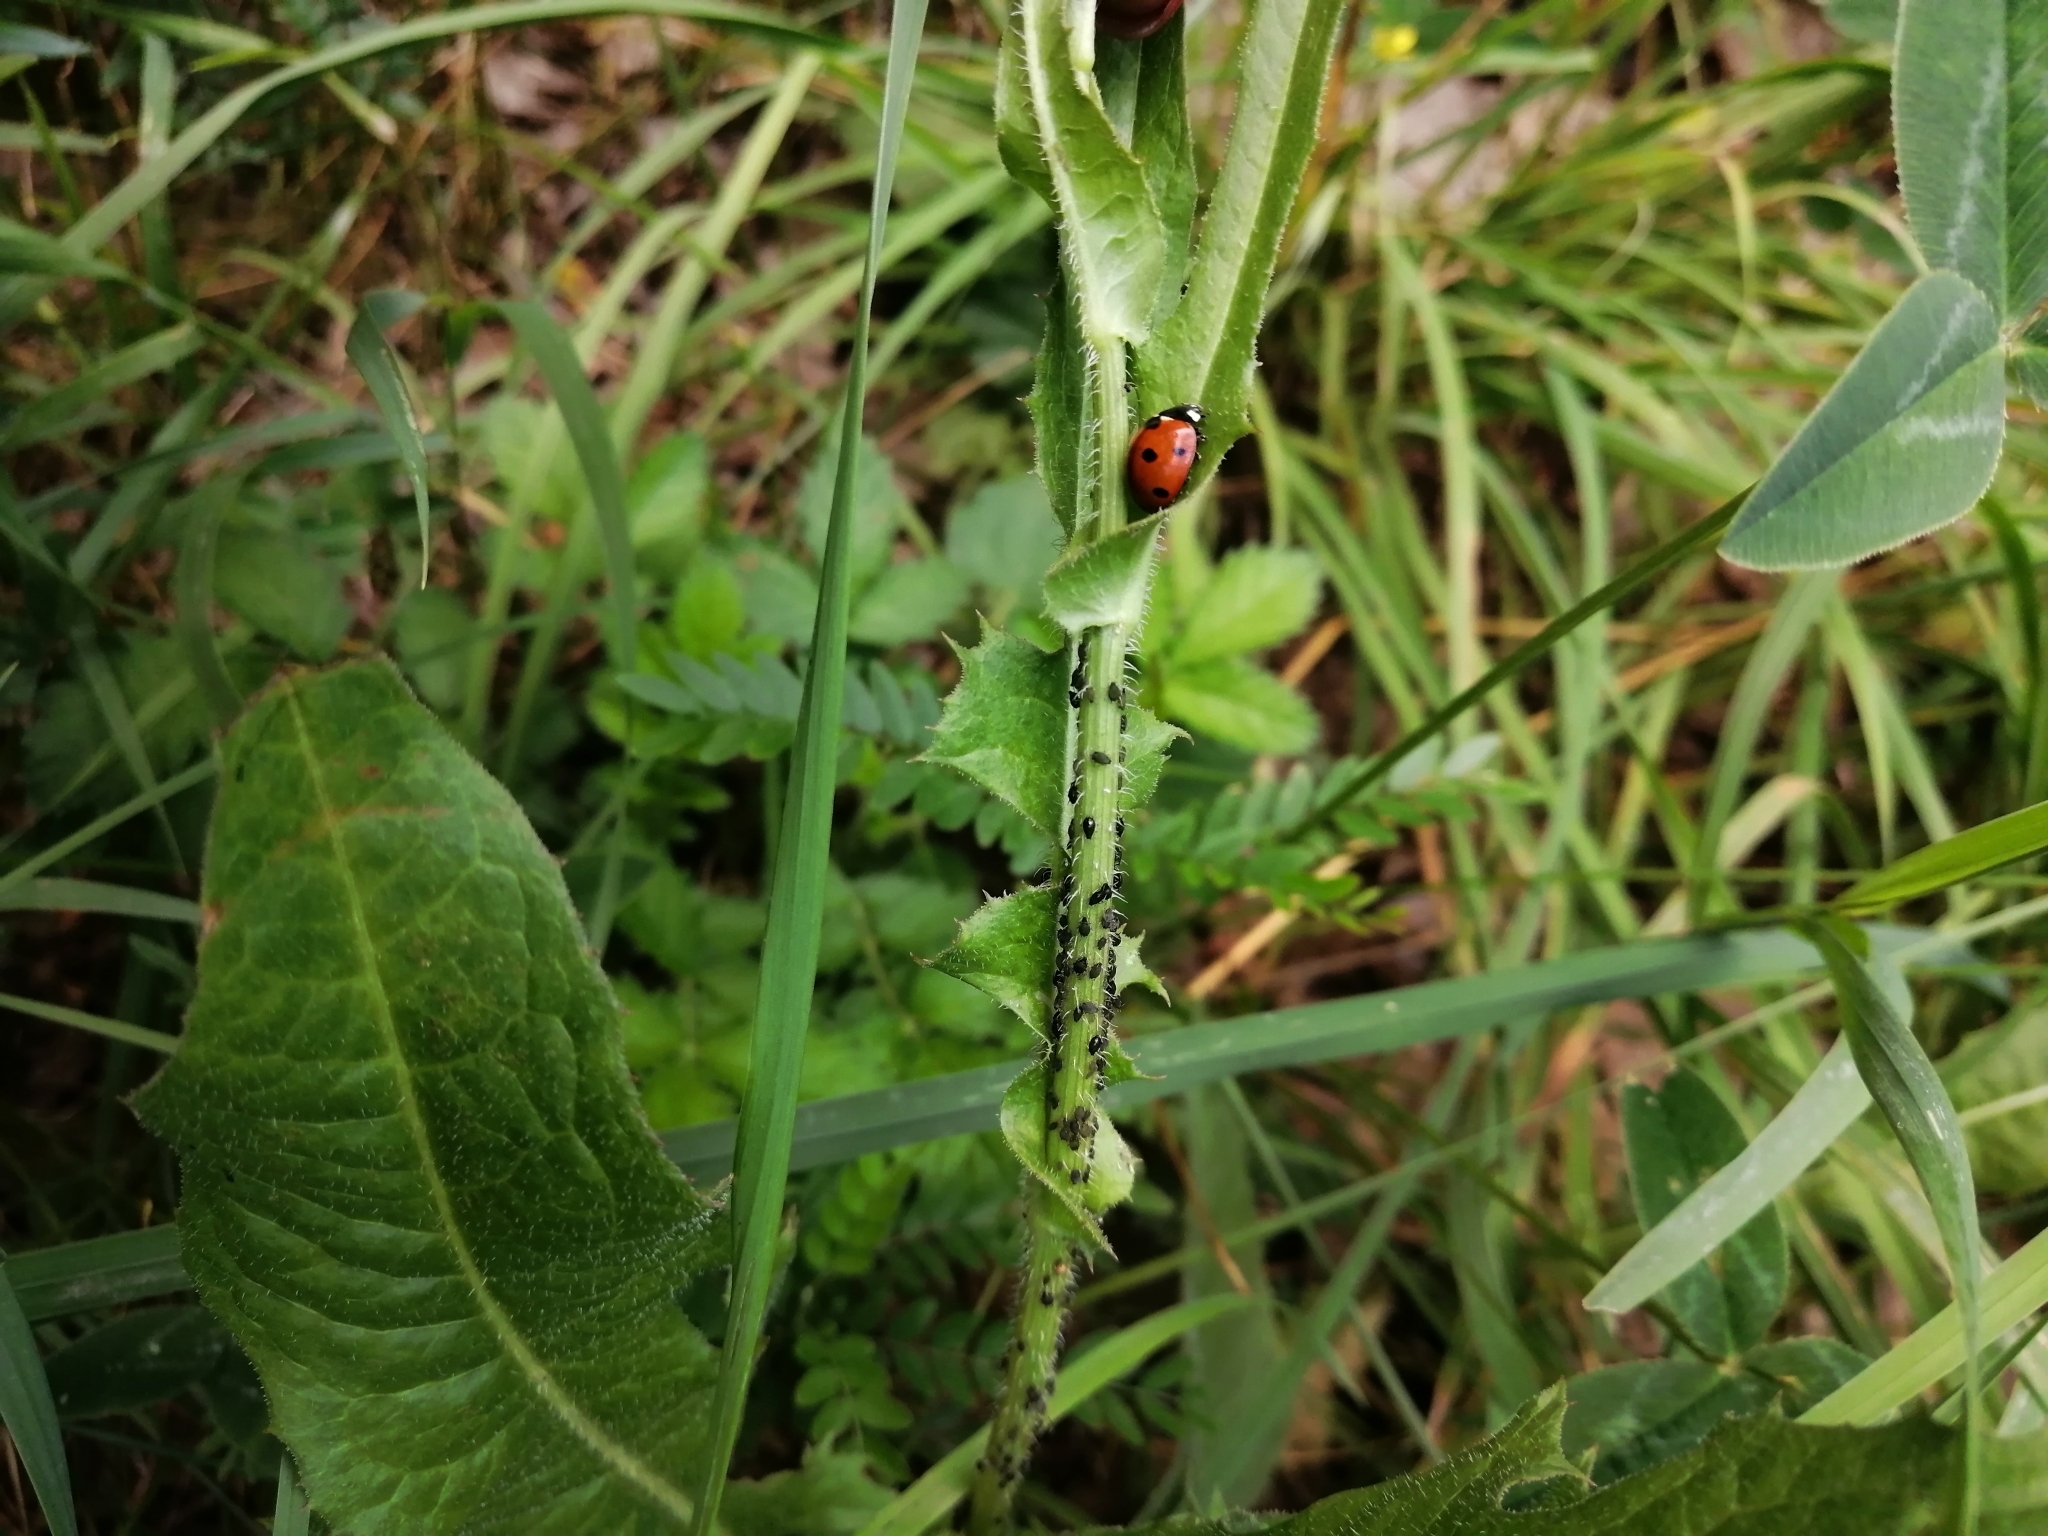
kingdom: Animalia
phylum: Arthropoda
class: Insecta
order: Coleoptera
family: Coccinellidae
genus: Coccinella
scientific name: Coccinella septempunctata
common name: Sevenspotted lady beetle
